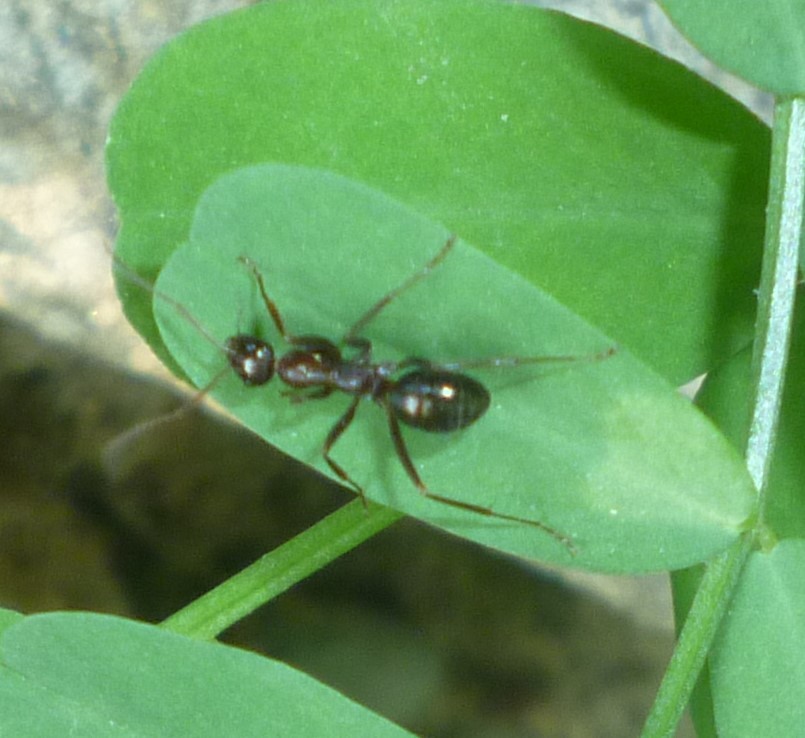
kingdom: Animalia
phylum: Arthropoda
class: Insecta
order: Hymenoptera
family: Formicidae
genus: Formica
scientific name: Formica
